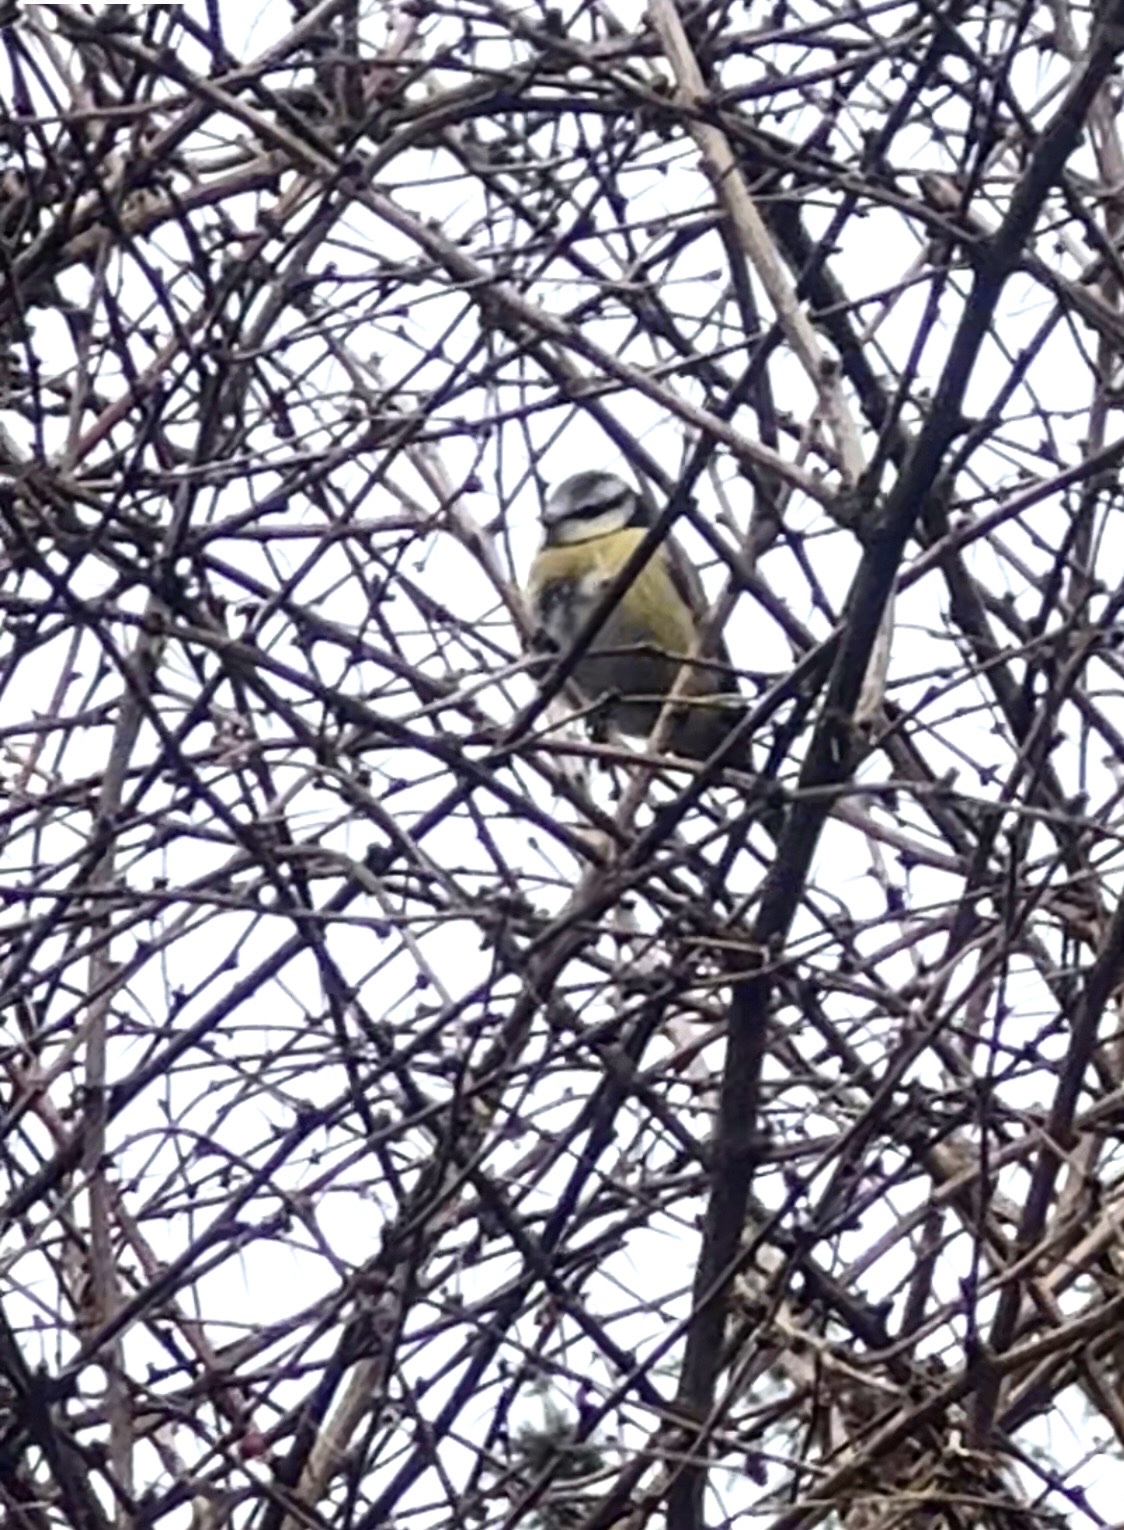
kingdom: Animalia
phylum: Chordata
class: Aves
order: Passeriformes
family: Paridae
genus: Cyanistes
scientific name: Cyanistes caeruleus
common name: Eurasian blue tit
